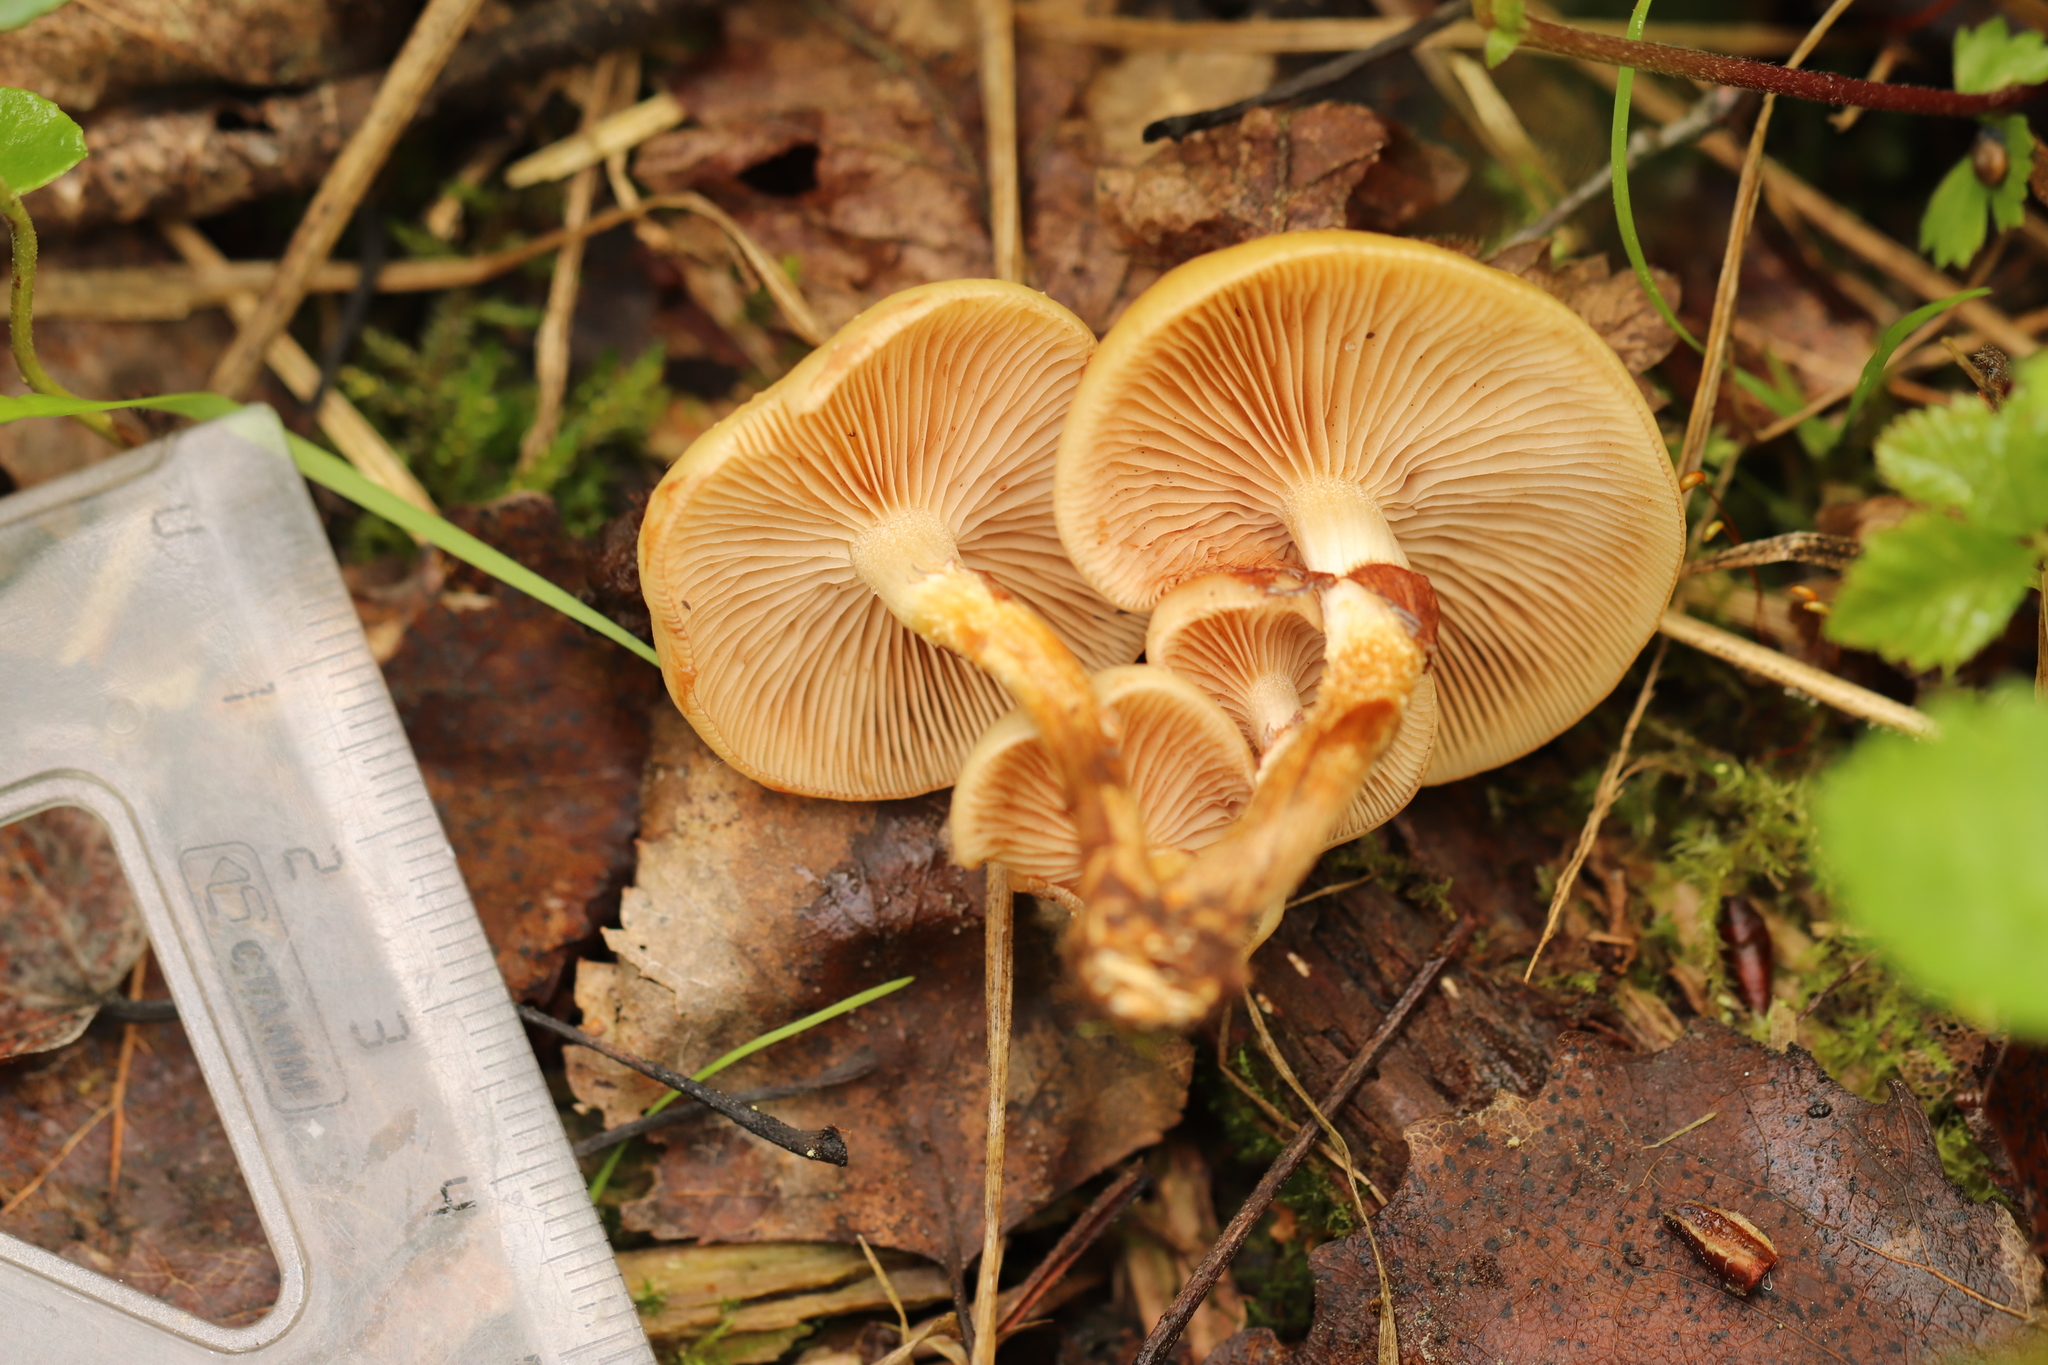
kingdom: Fungi
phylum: Basidiomycota
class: Agaricomycetes
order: Agaricales
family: Strophariaceae
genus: Kuehneromyces
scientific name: Kuehneromyces mutabilis
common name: Sheathed woodtuft
